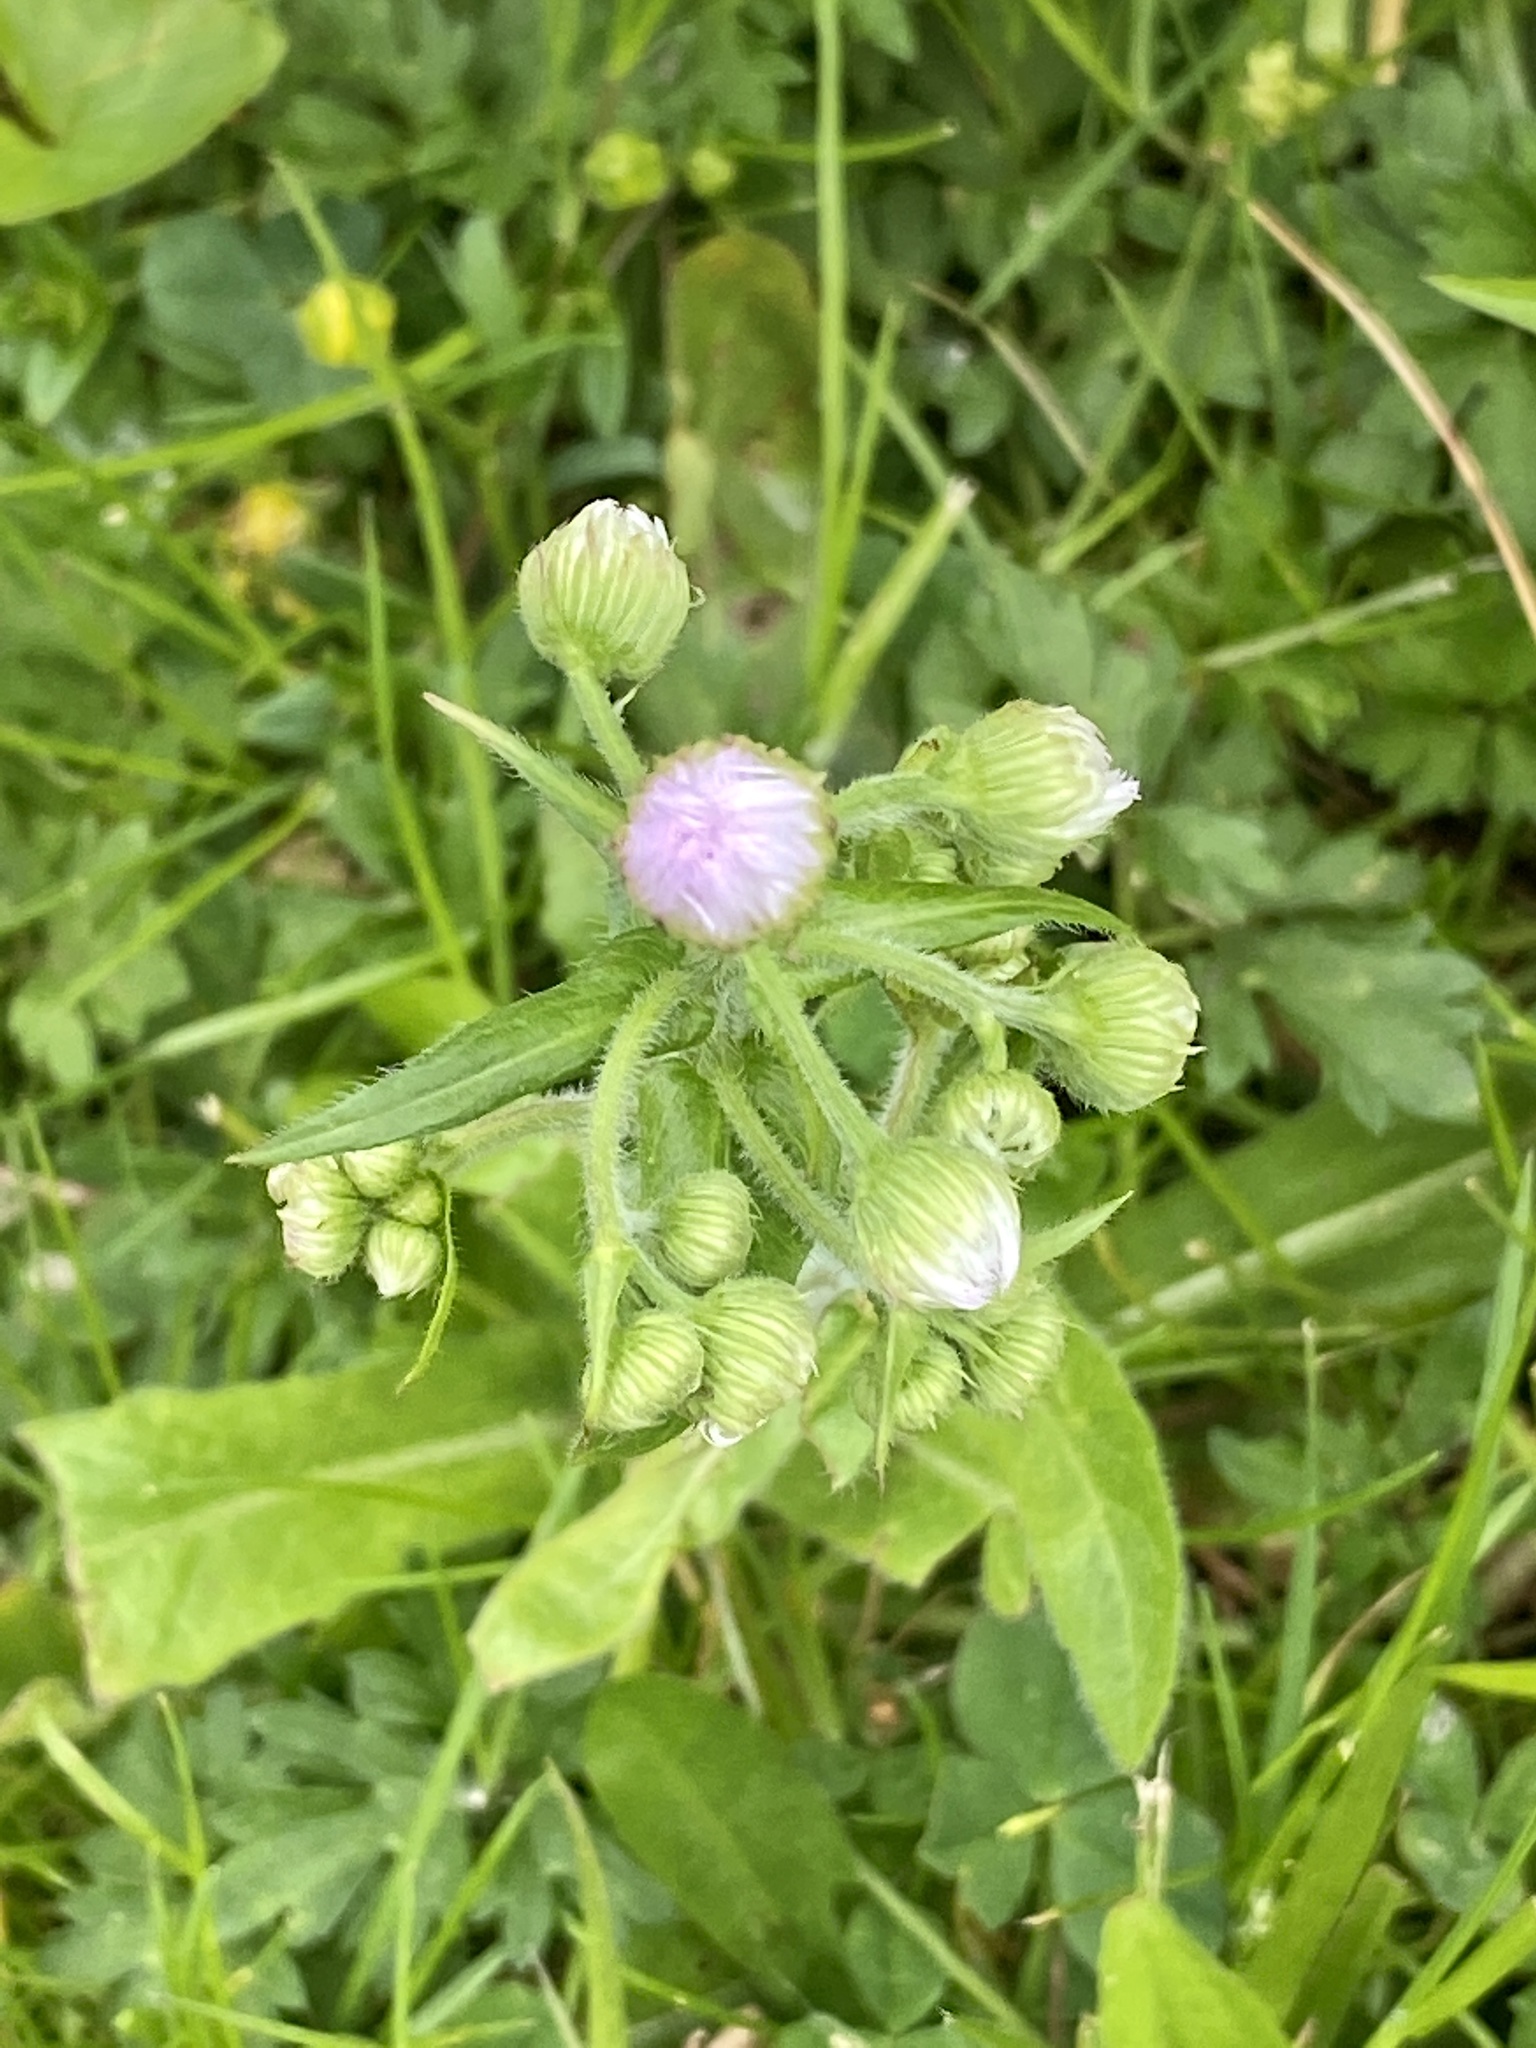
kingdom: Plantae
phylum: Tracheophyta
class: Magnoliopsida
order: Asterales
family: Asteraceae
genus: Erigeron
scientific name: Erigeron philadelphicus
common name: Robin's-plantain
